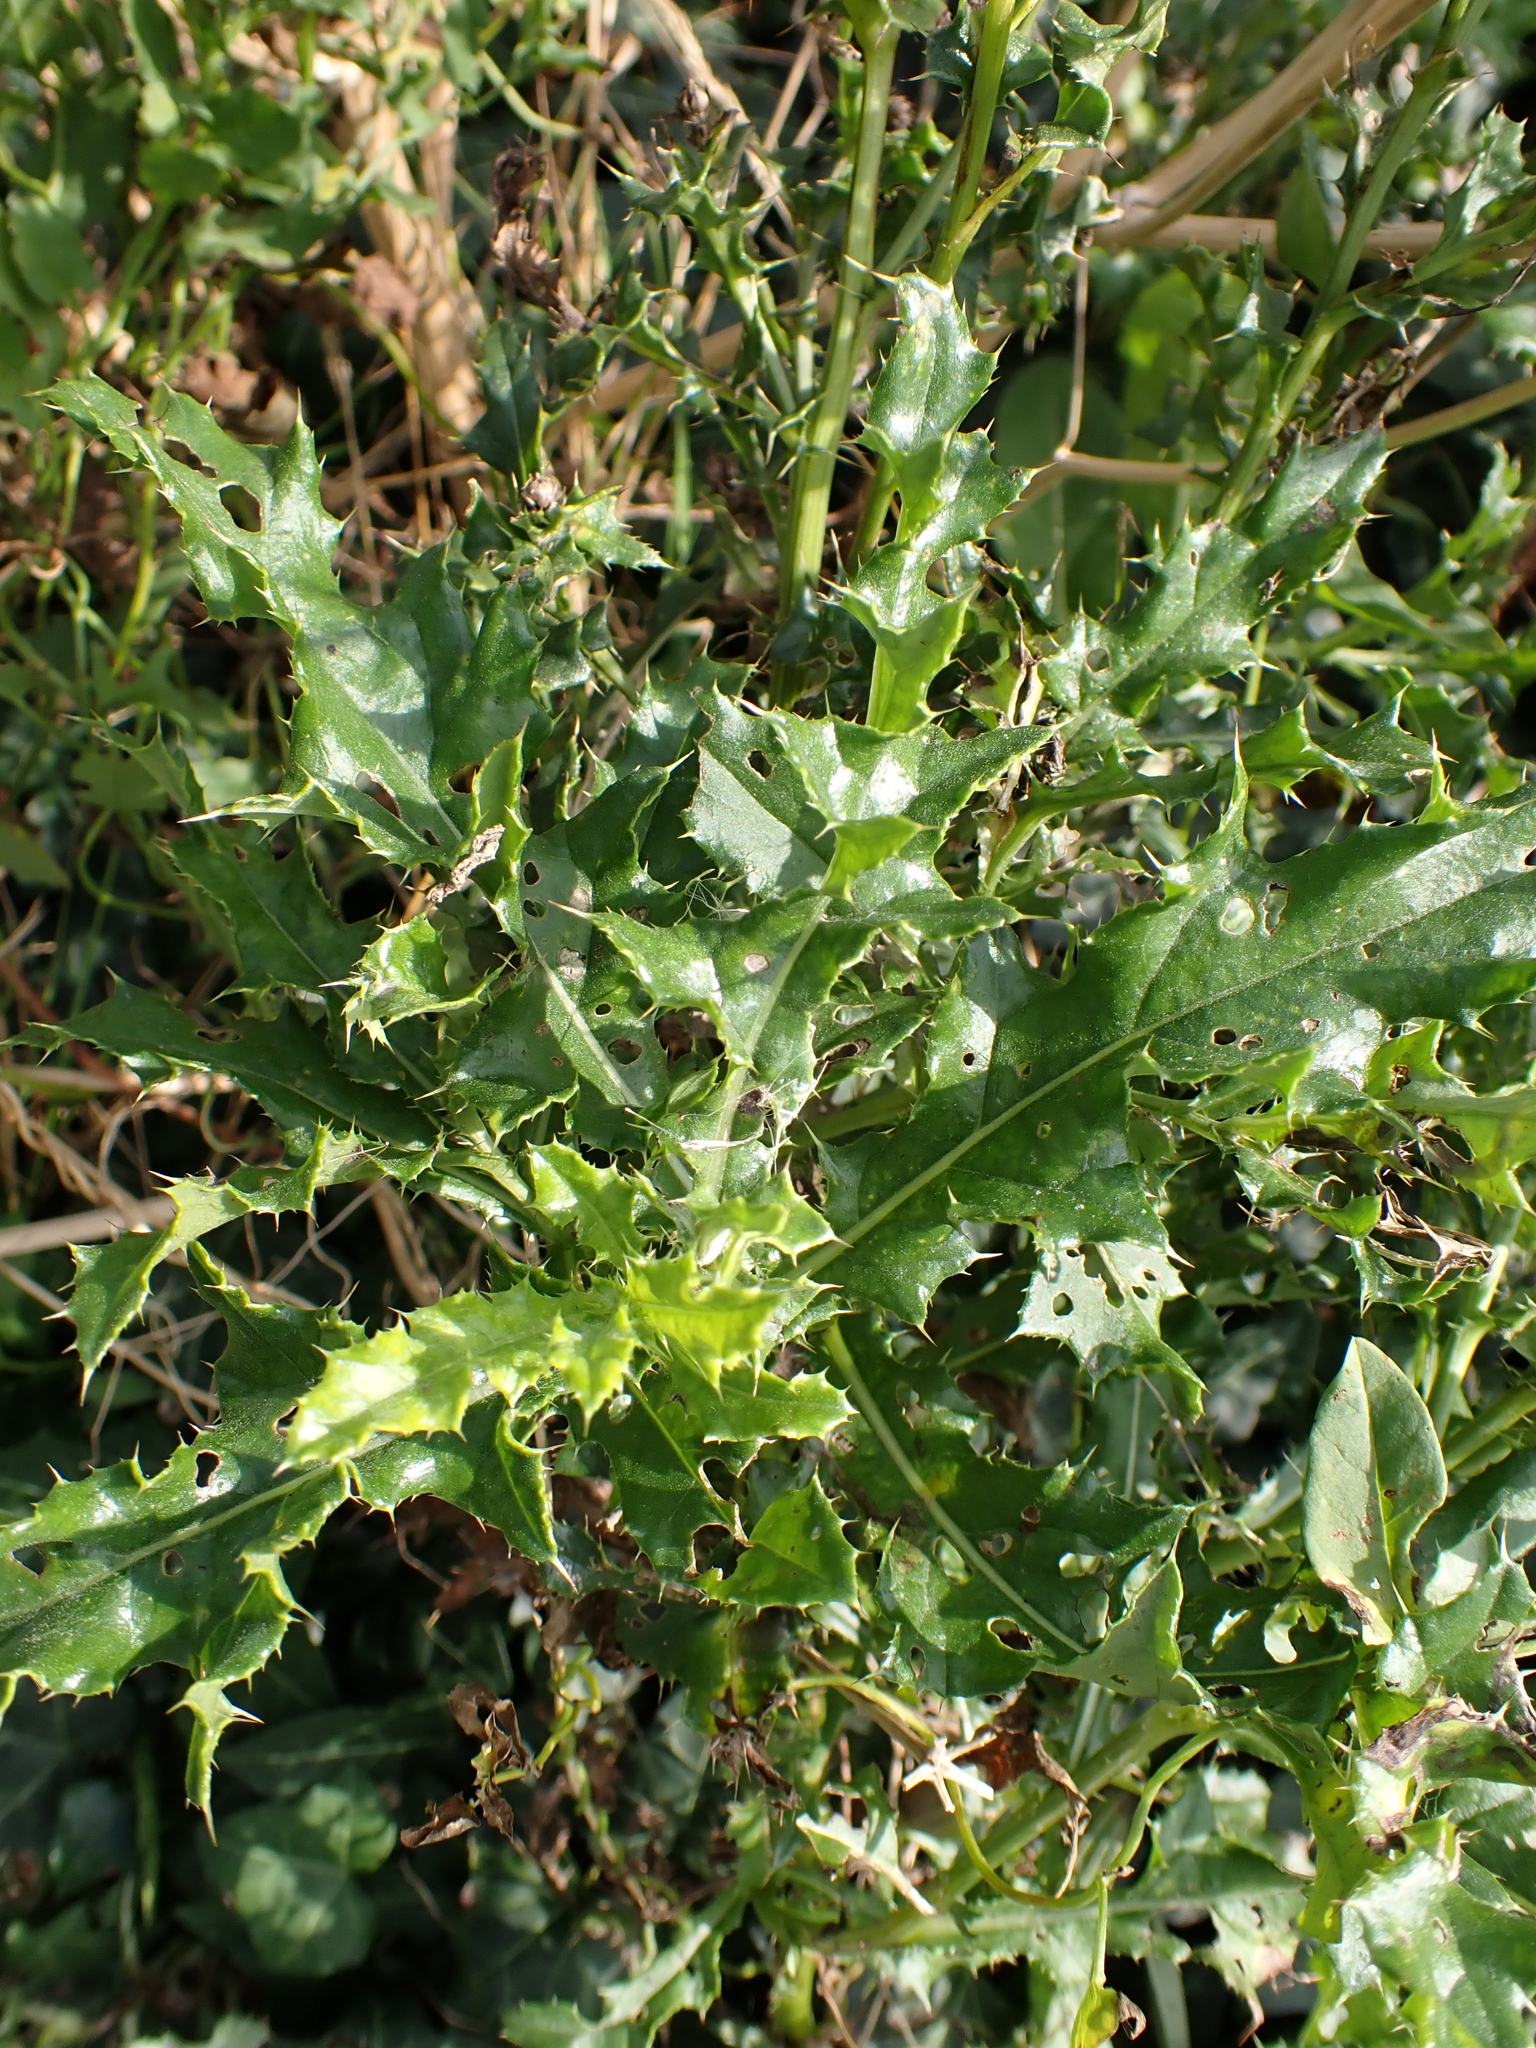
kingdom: Plantae
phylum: Tracheophyta
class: Magnoliopsida
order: Asterales
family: Asteraceae
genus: Cirsium
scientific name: Cirsium arvense
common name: Creeping thistle
